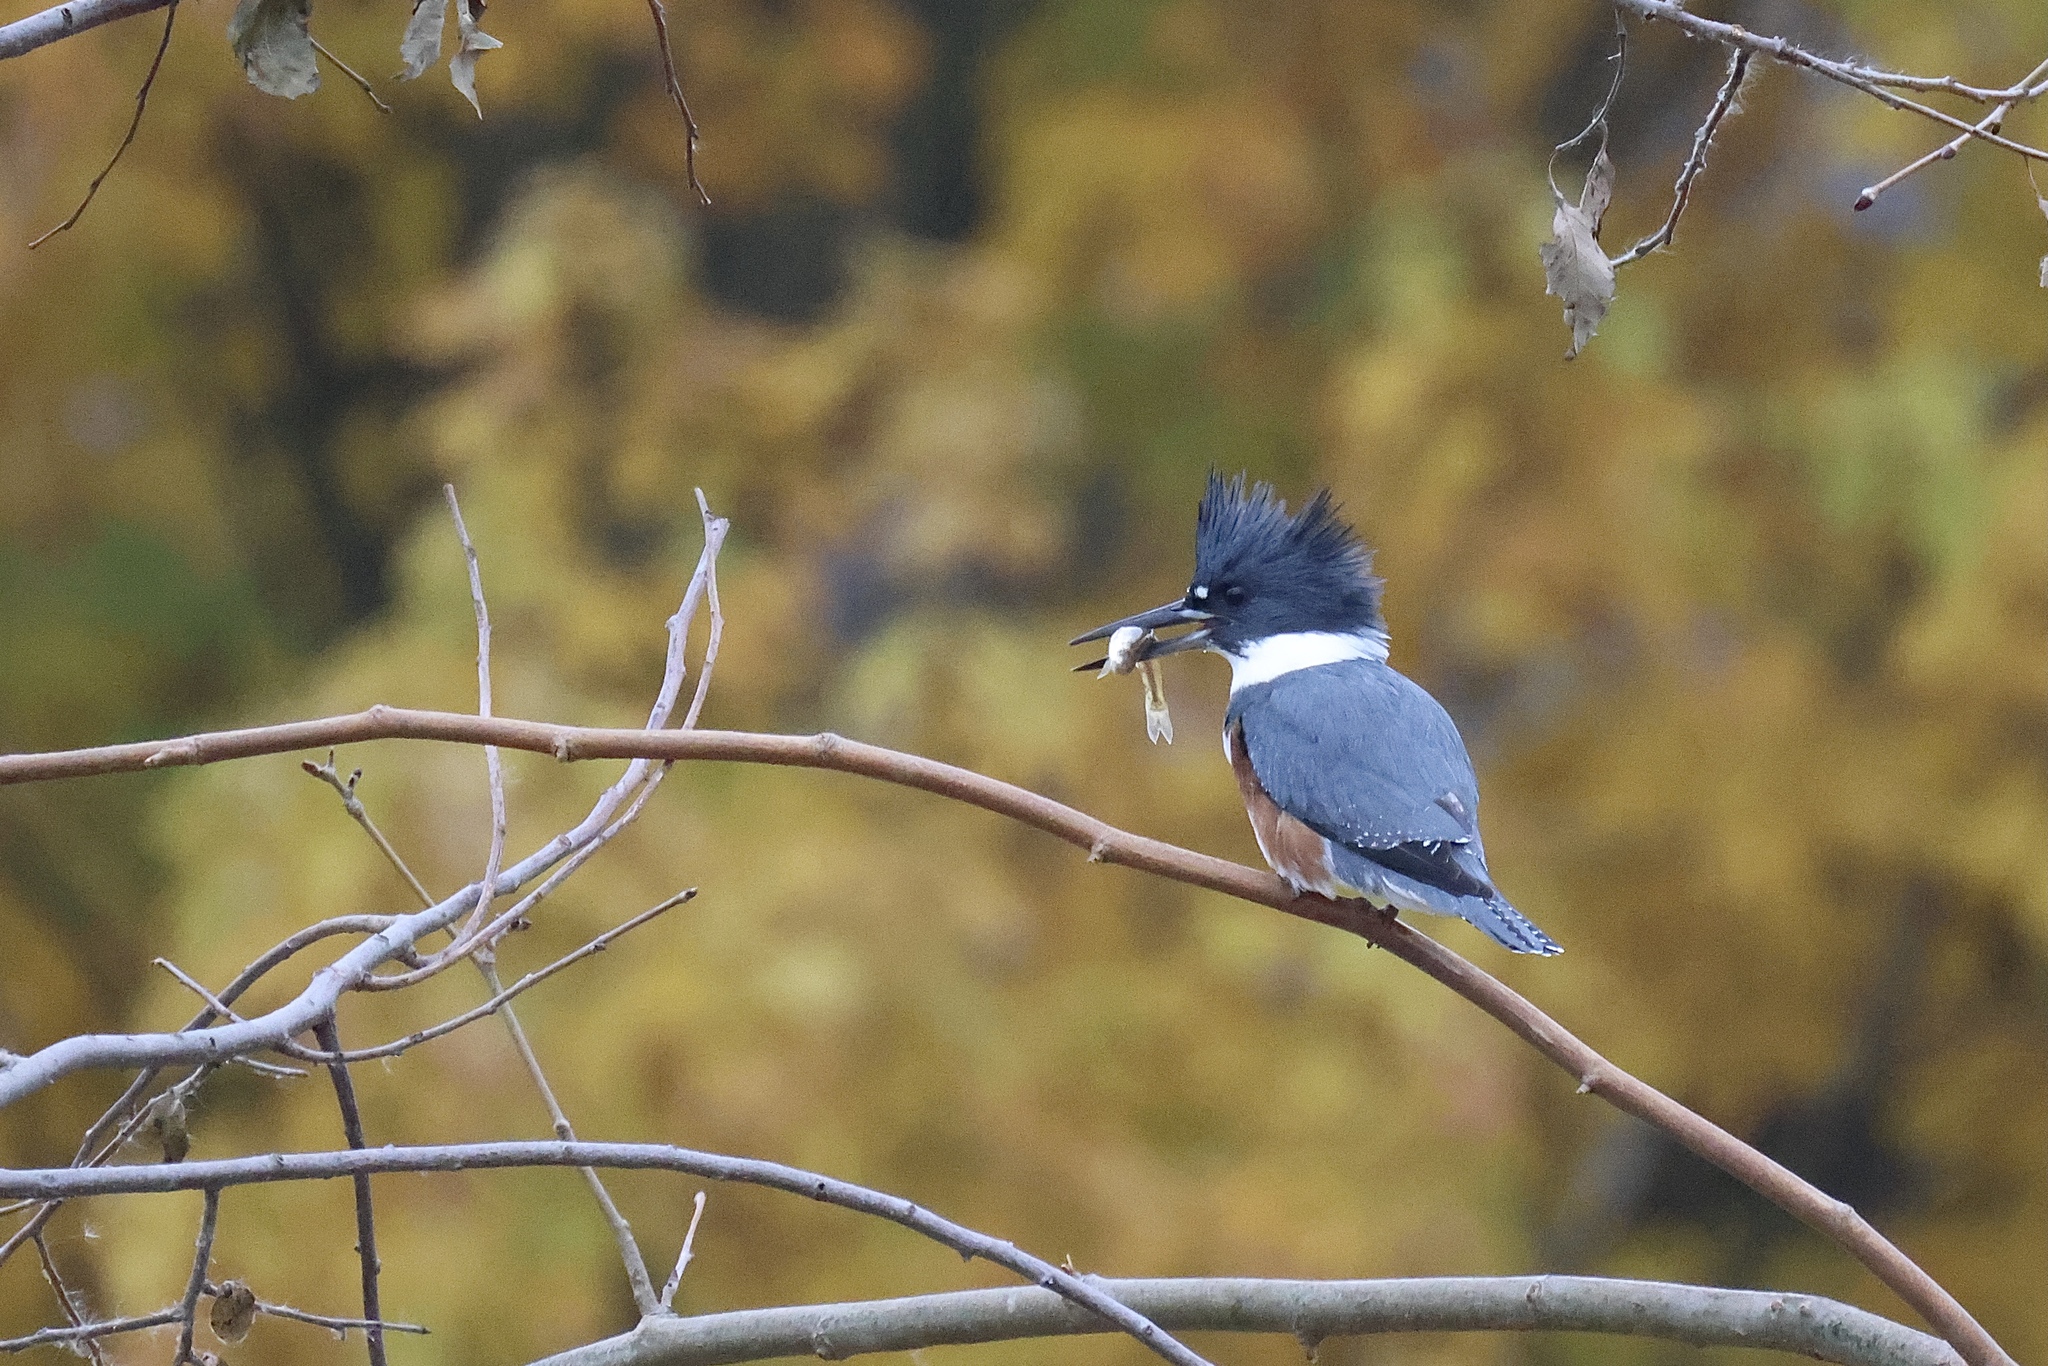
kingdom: Animalia
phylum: Chordata
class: Aves
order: Coraciiformes
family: Alcedinidae
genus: Megaceryle
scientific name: Megaceryle alcyon
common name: Belted kingfisher
